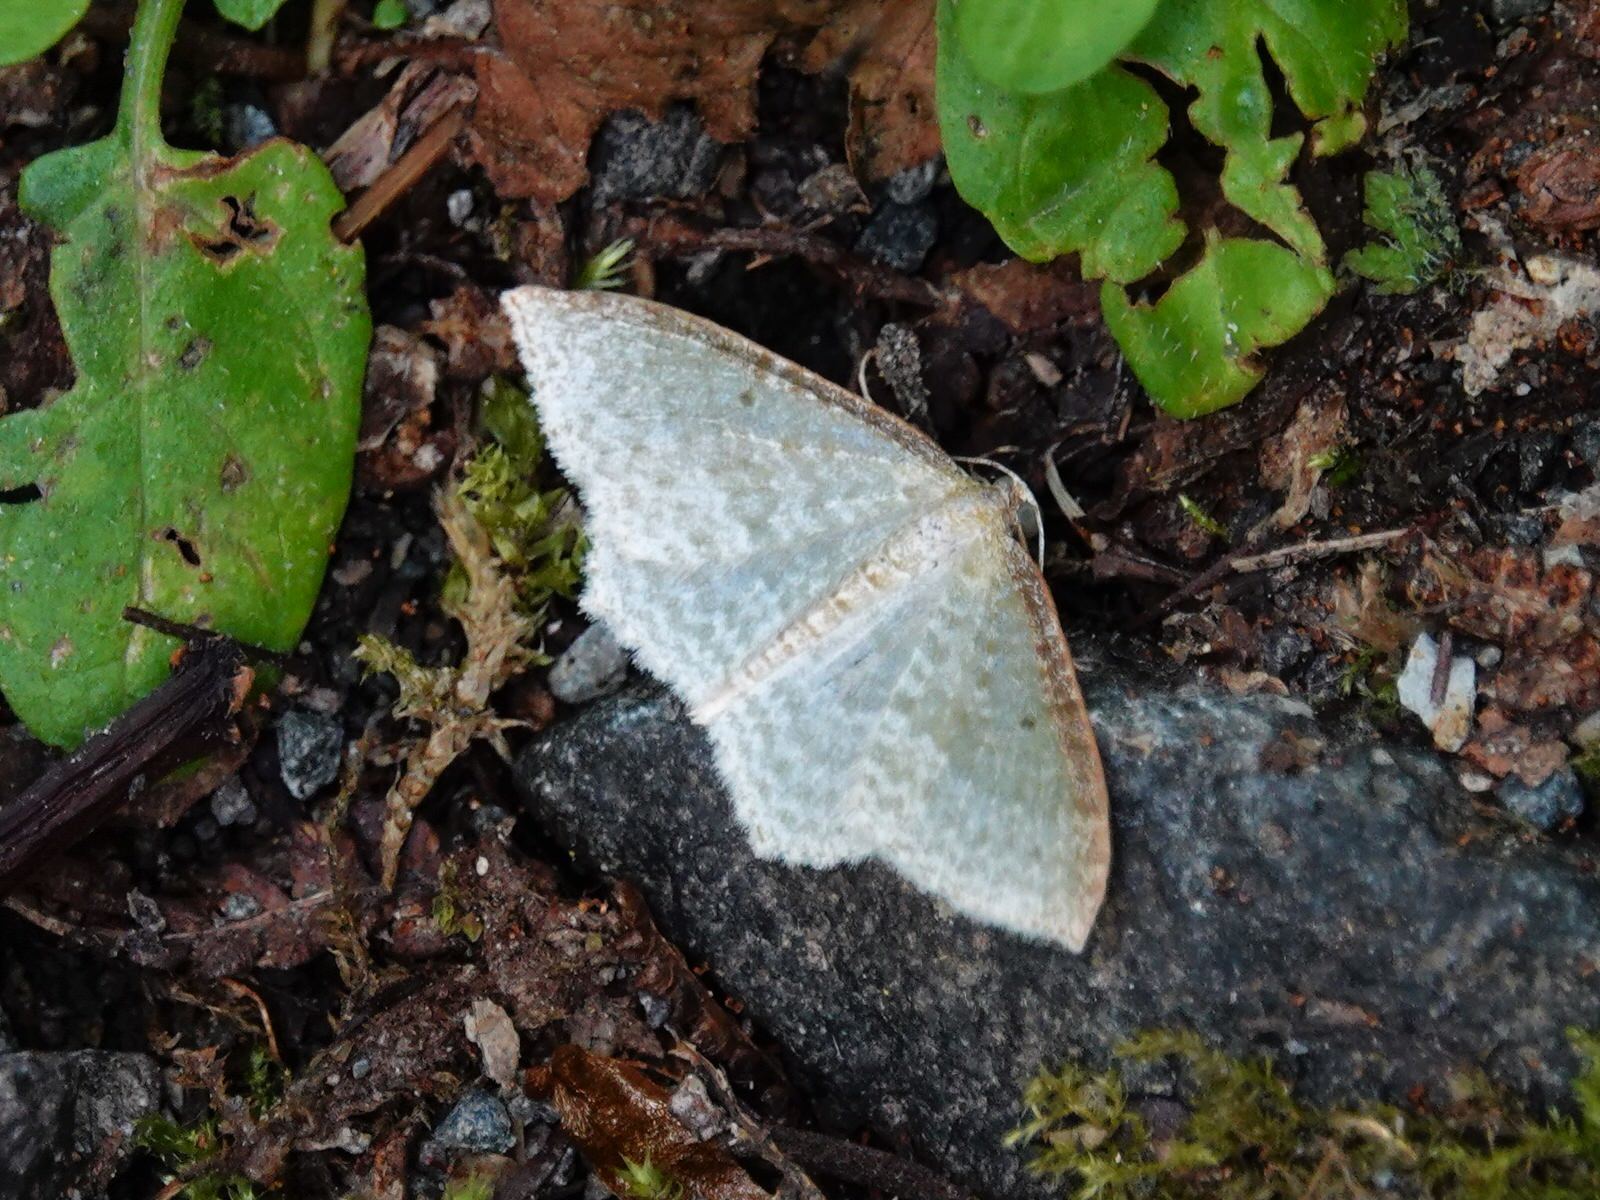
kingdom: Animalia
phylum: Arthropoda
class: Insecta
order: Lepidoptera
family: Geometridae
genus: Poecilasthena
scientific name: Poecilasthena pulchraria
